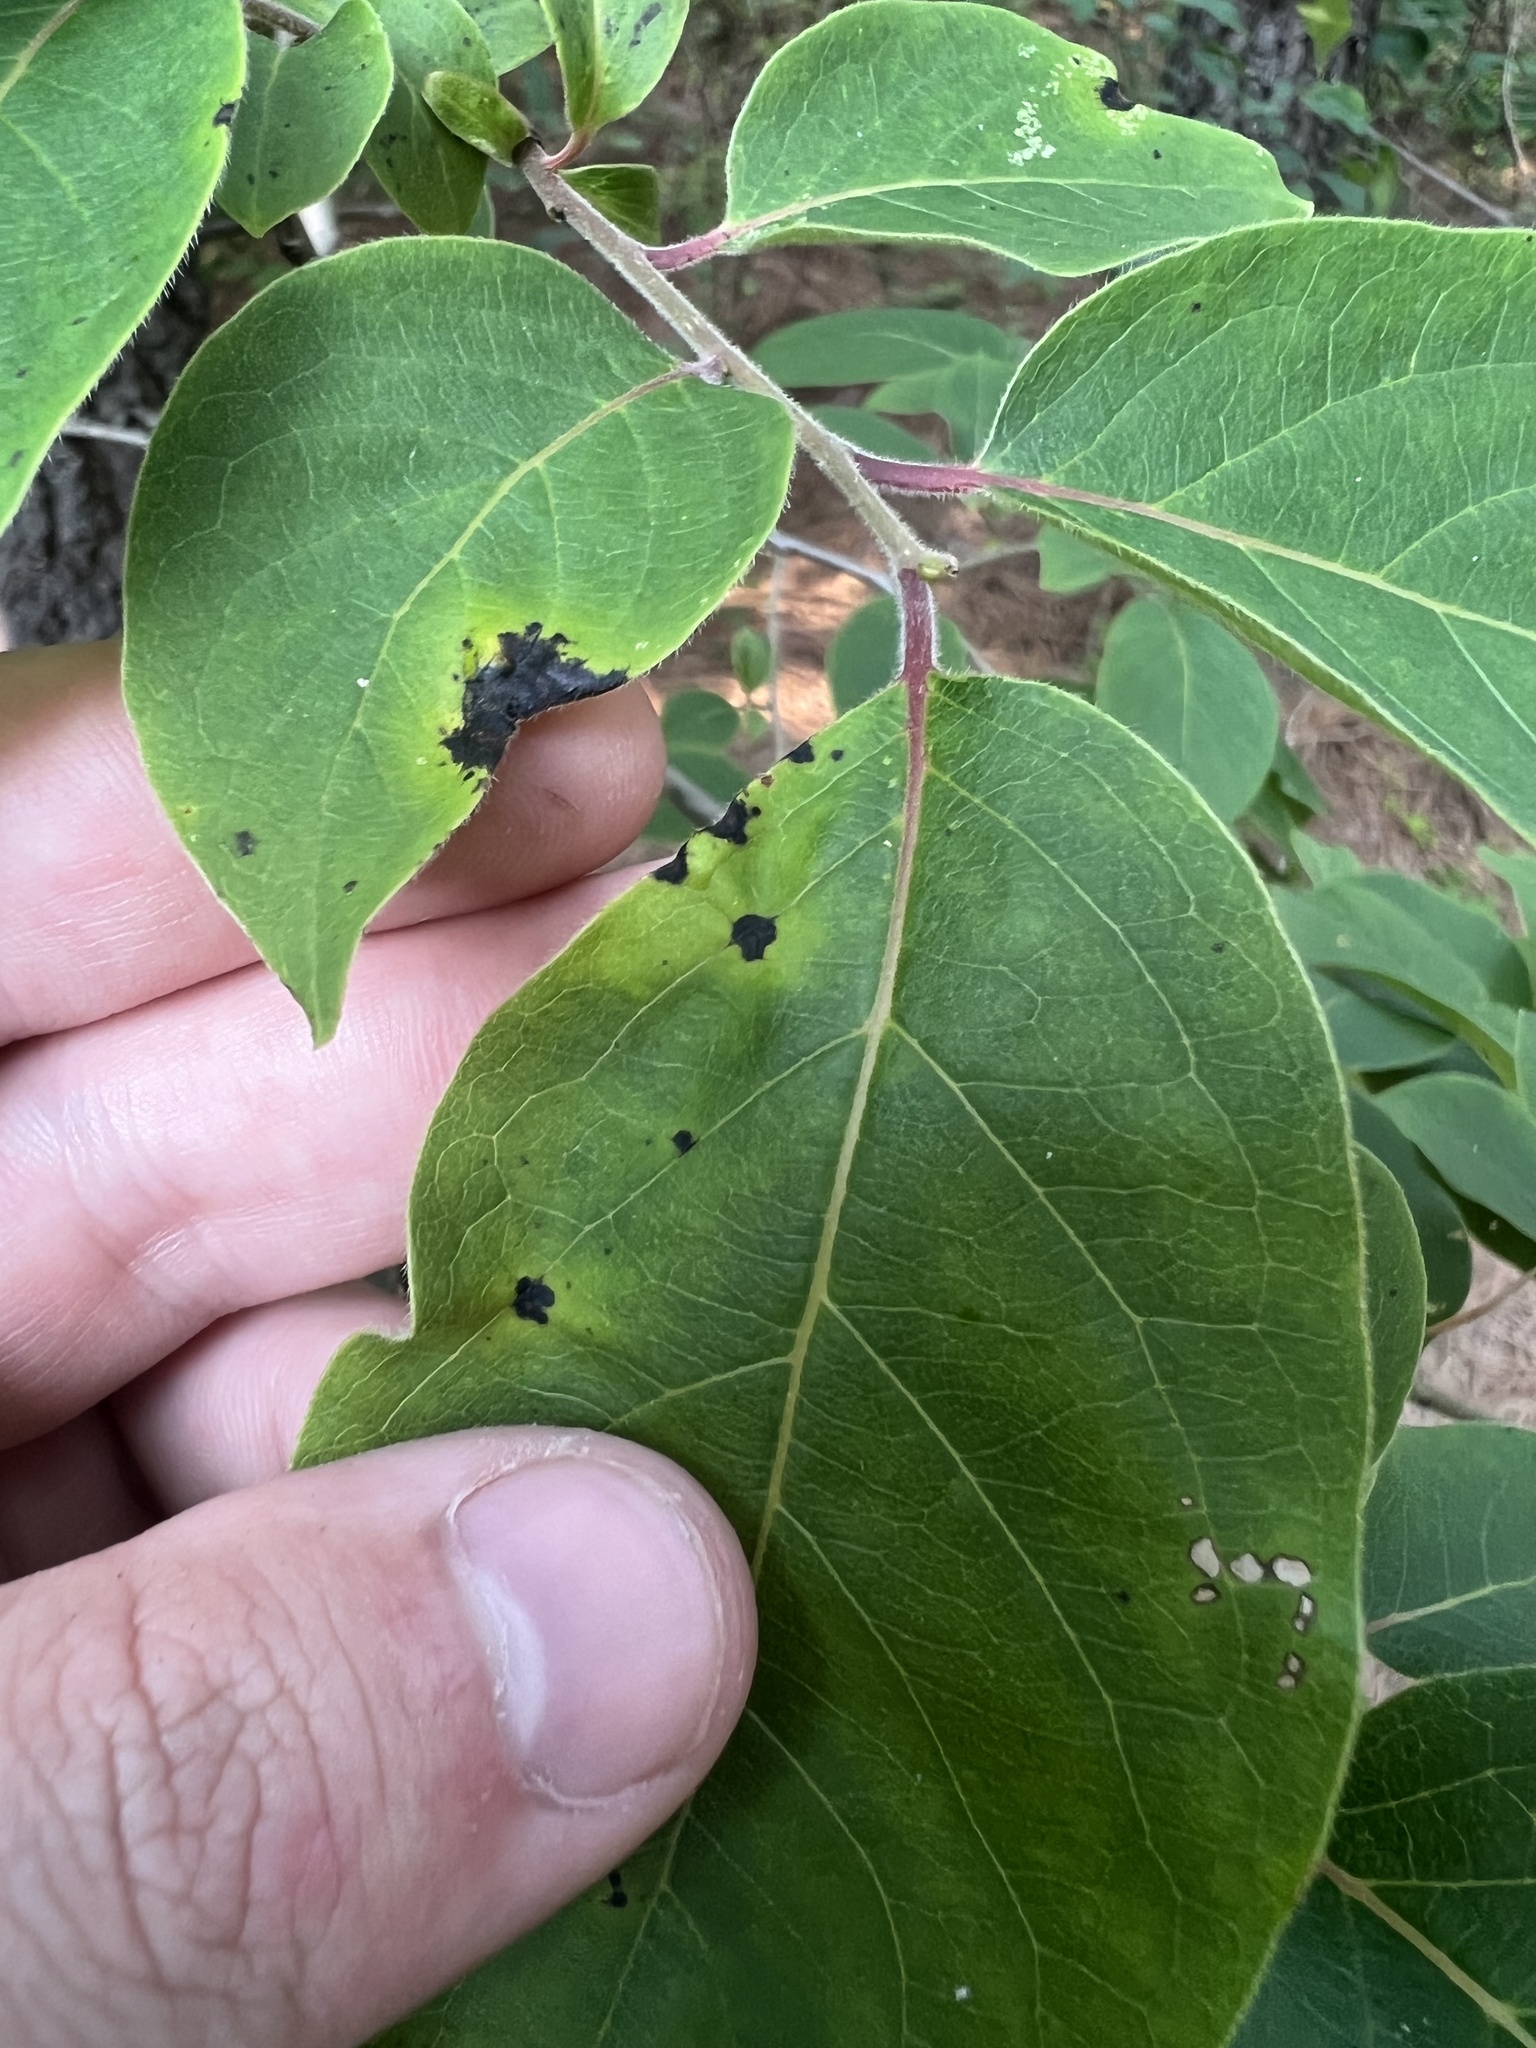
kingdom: Fungi
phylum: Ascomycota
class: Dothideomycetes
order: Mycosphaerellales
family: Mycosphaerellaceae
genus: Pseudocercospora
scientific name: Pseudocercospora kaki
